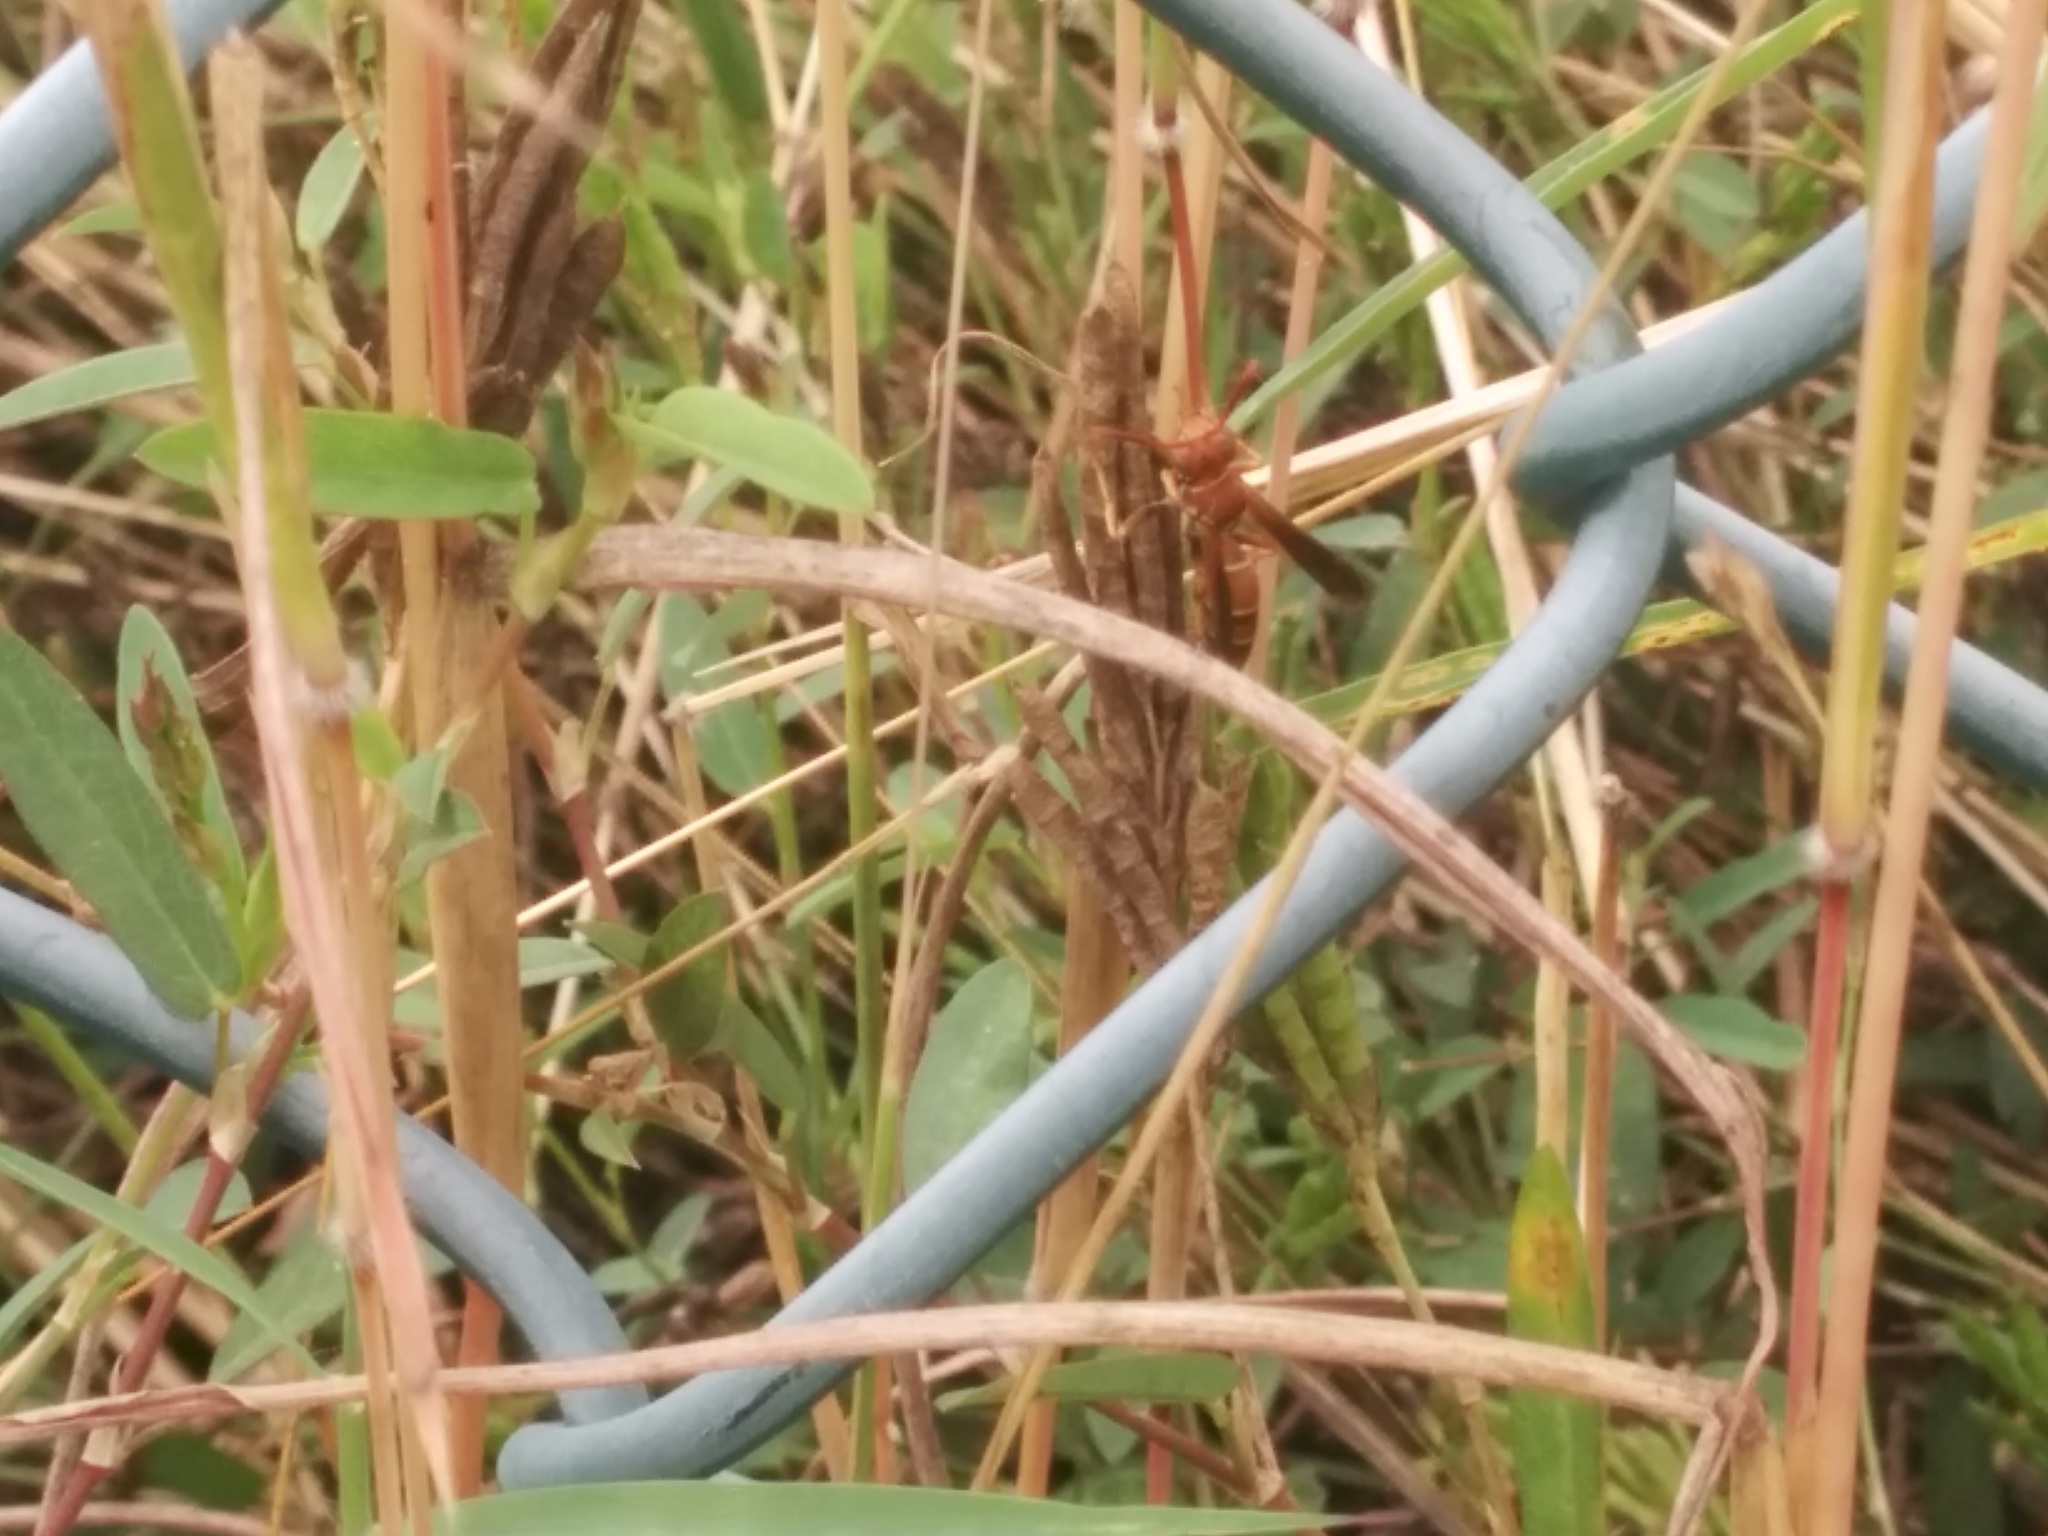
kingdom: Animalia
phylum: Arthropoda
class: Insecta
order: Hymenoptera
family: Eumenidae
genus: Polistes
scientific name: Polistes dorsalis
